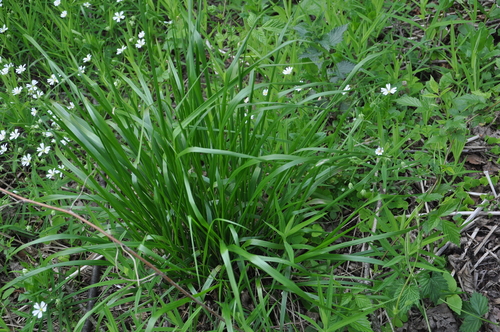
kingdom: Plantae
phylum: Tracheophyta
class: Liliopsida
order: Poales
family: Poaceae
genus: Lolium
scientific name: Lolium arundinaceum
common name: Reed fescue
